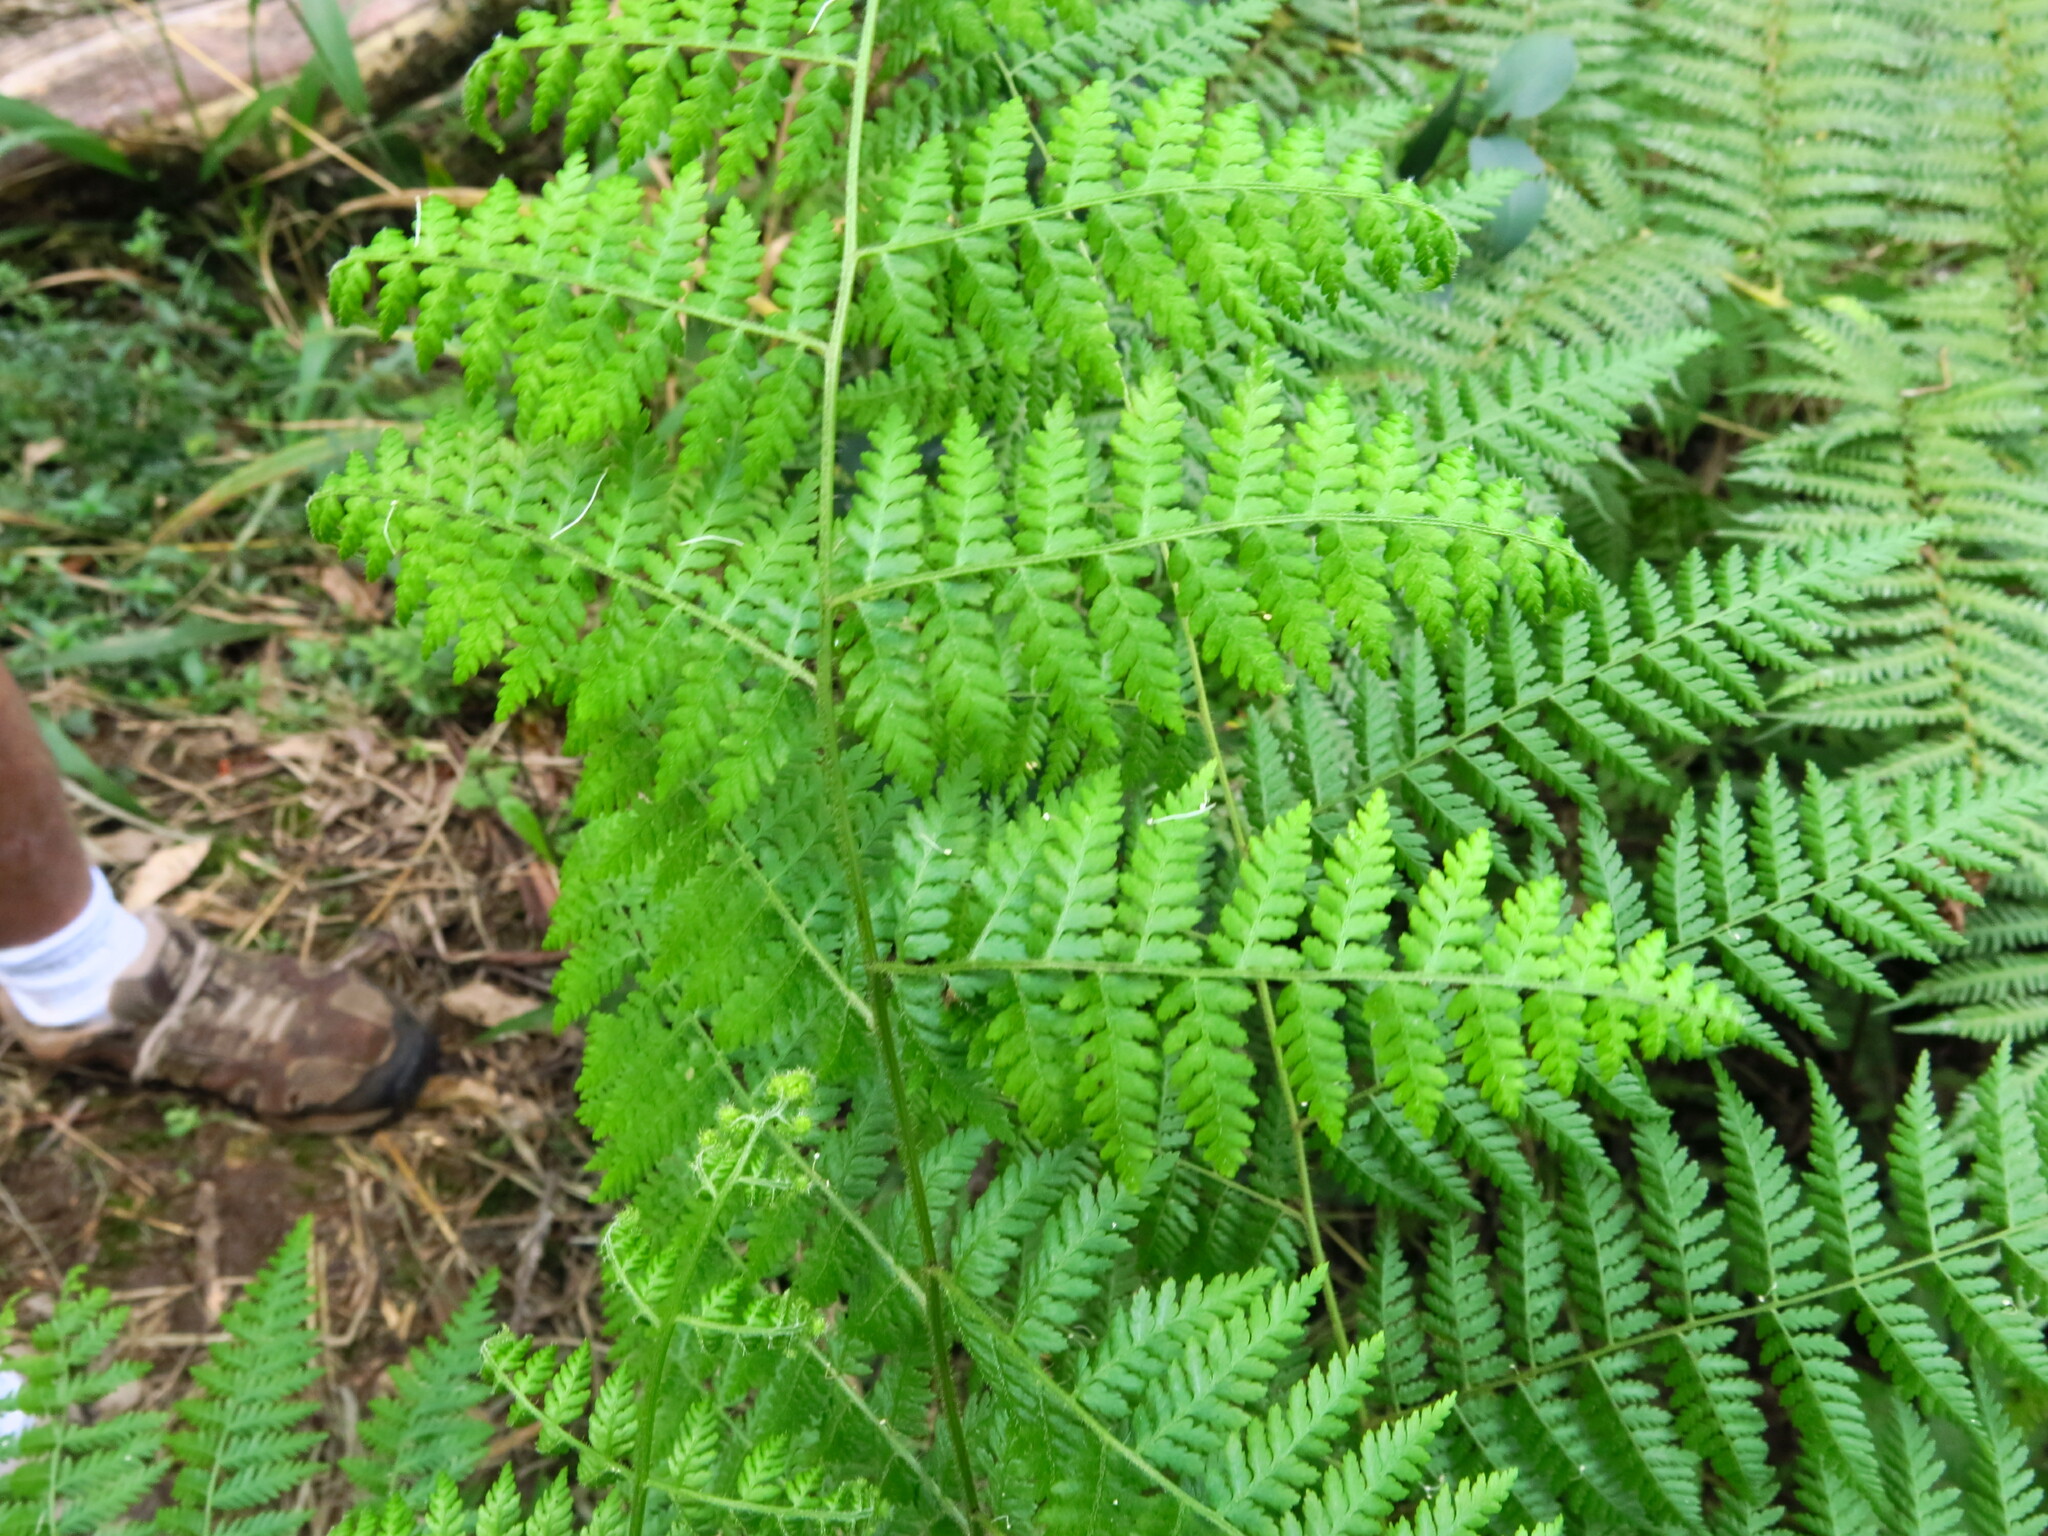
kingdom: Plantae
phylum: Tracheophyta
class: Polypodiopsida
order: Polypodiales
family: Dennstaedtiaceae
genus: Hypolepis
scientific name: Hypolepis sparsisora
